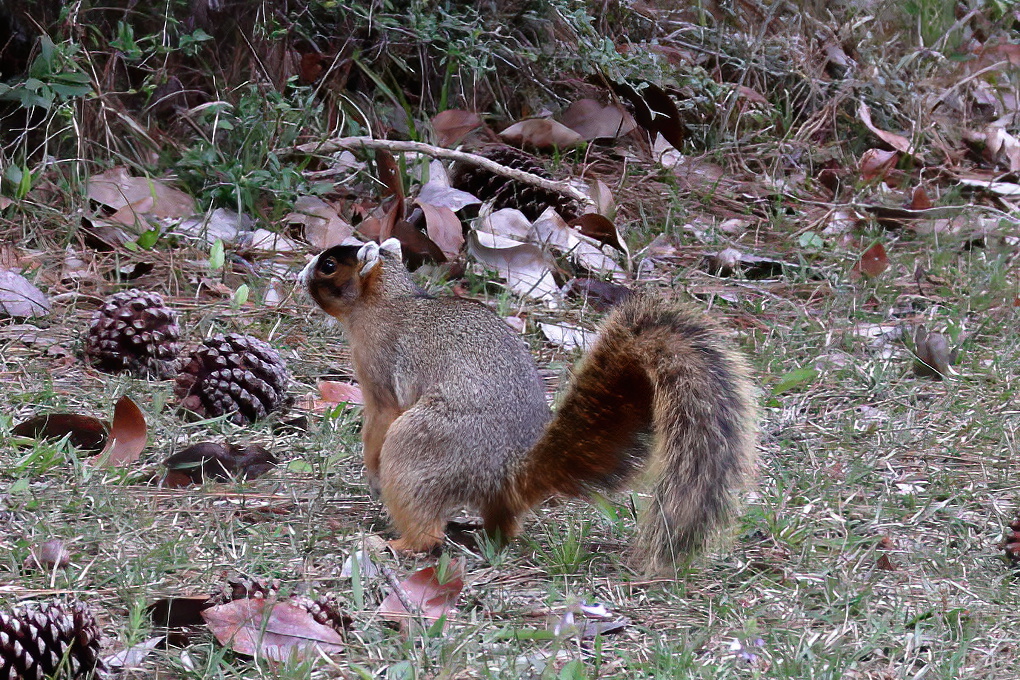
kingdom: Animalia
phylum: Chordata
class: Mammalia
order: Rodentia
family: Sciuridae
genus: Sciurus
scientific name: Sciurus niger
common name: Fox squirrel
